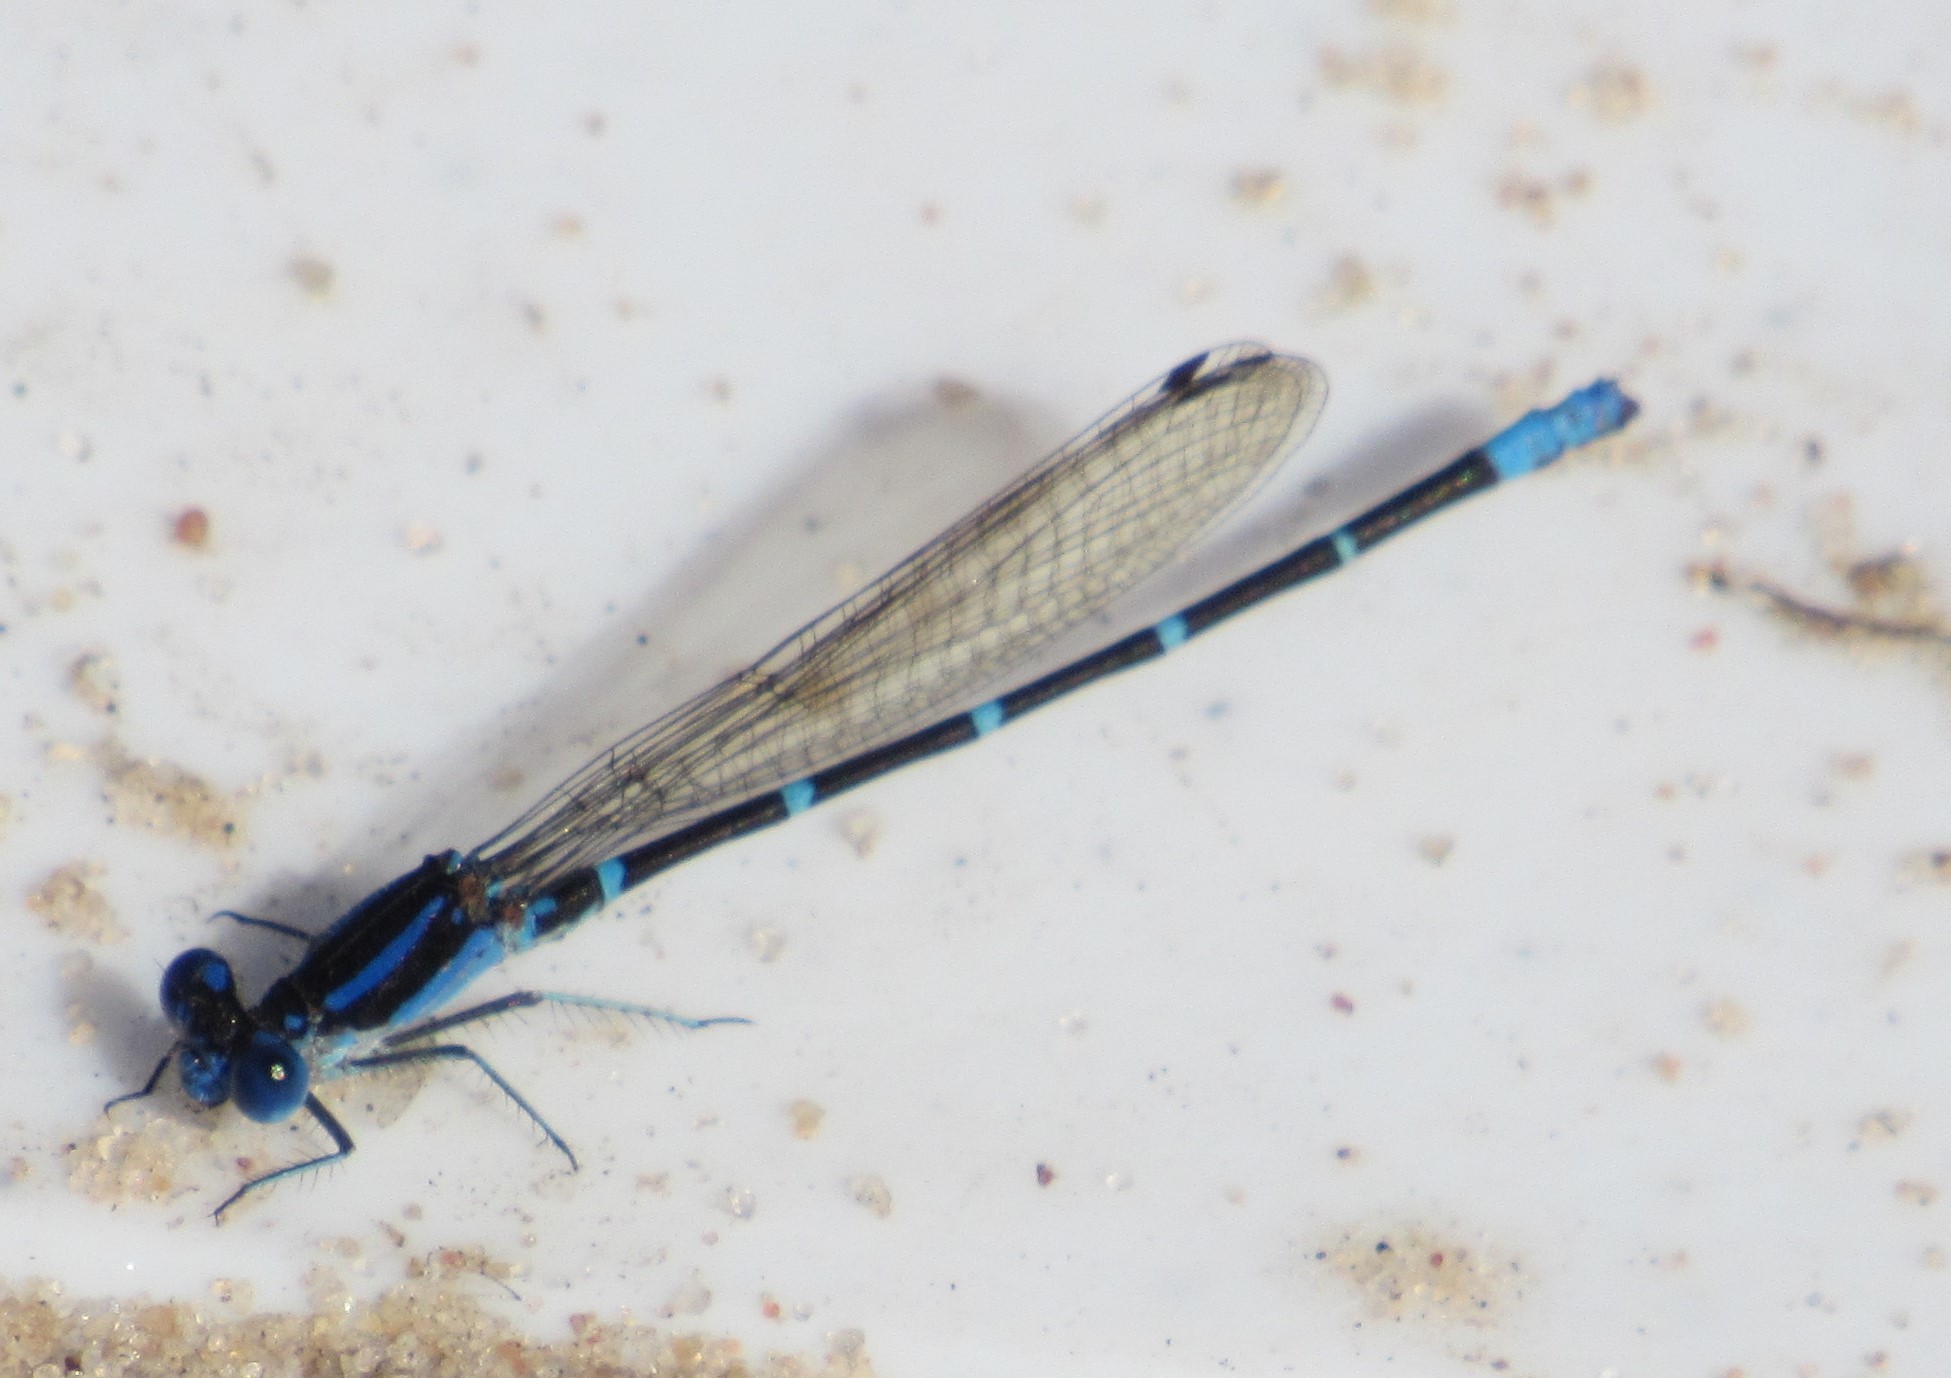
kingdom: Animalia
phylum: Arthropoda
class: Insecta
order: Odonata
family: Coenagrionidae
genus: Argia
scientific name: Argia sedula
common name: Blue-ringed dancer
